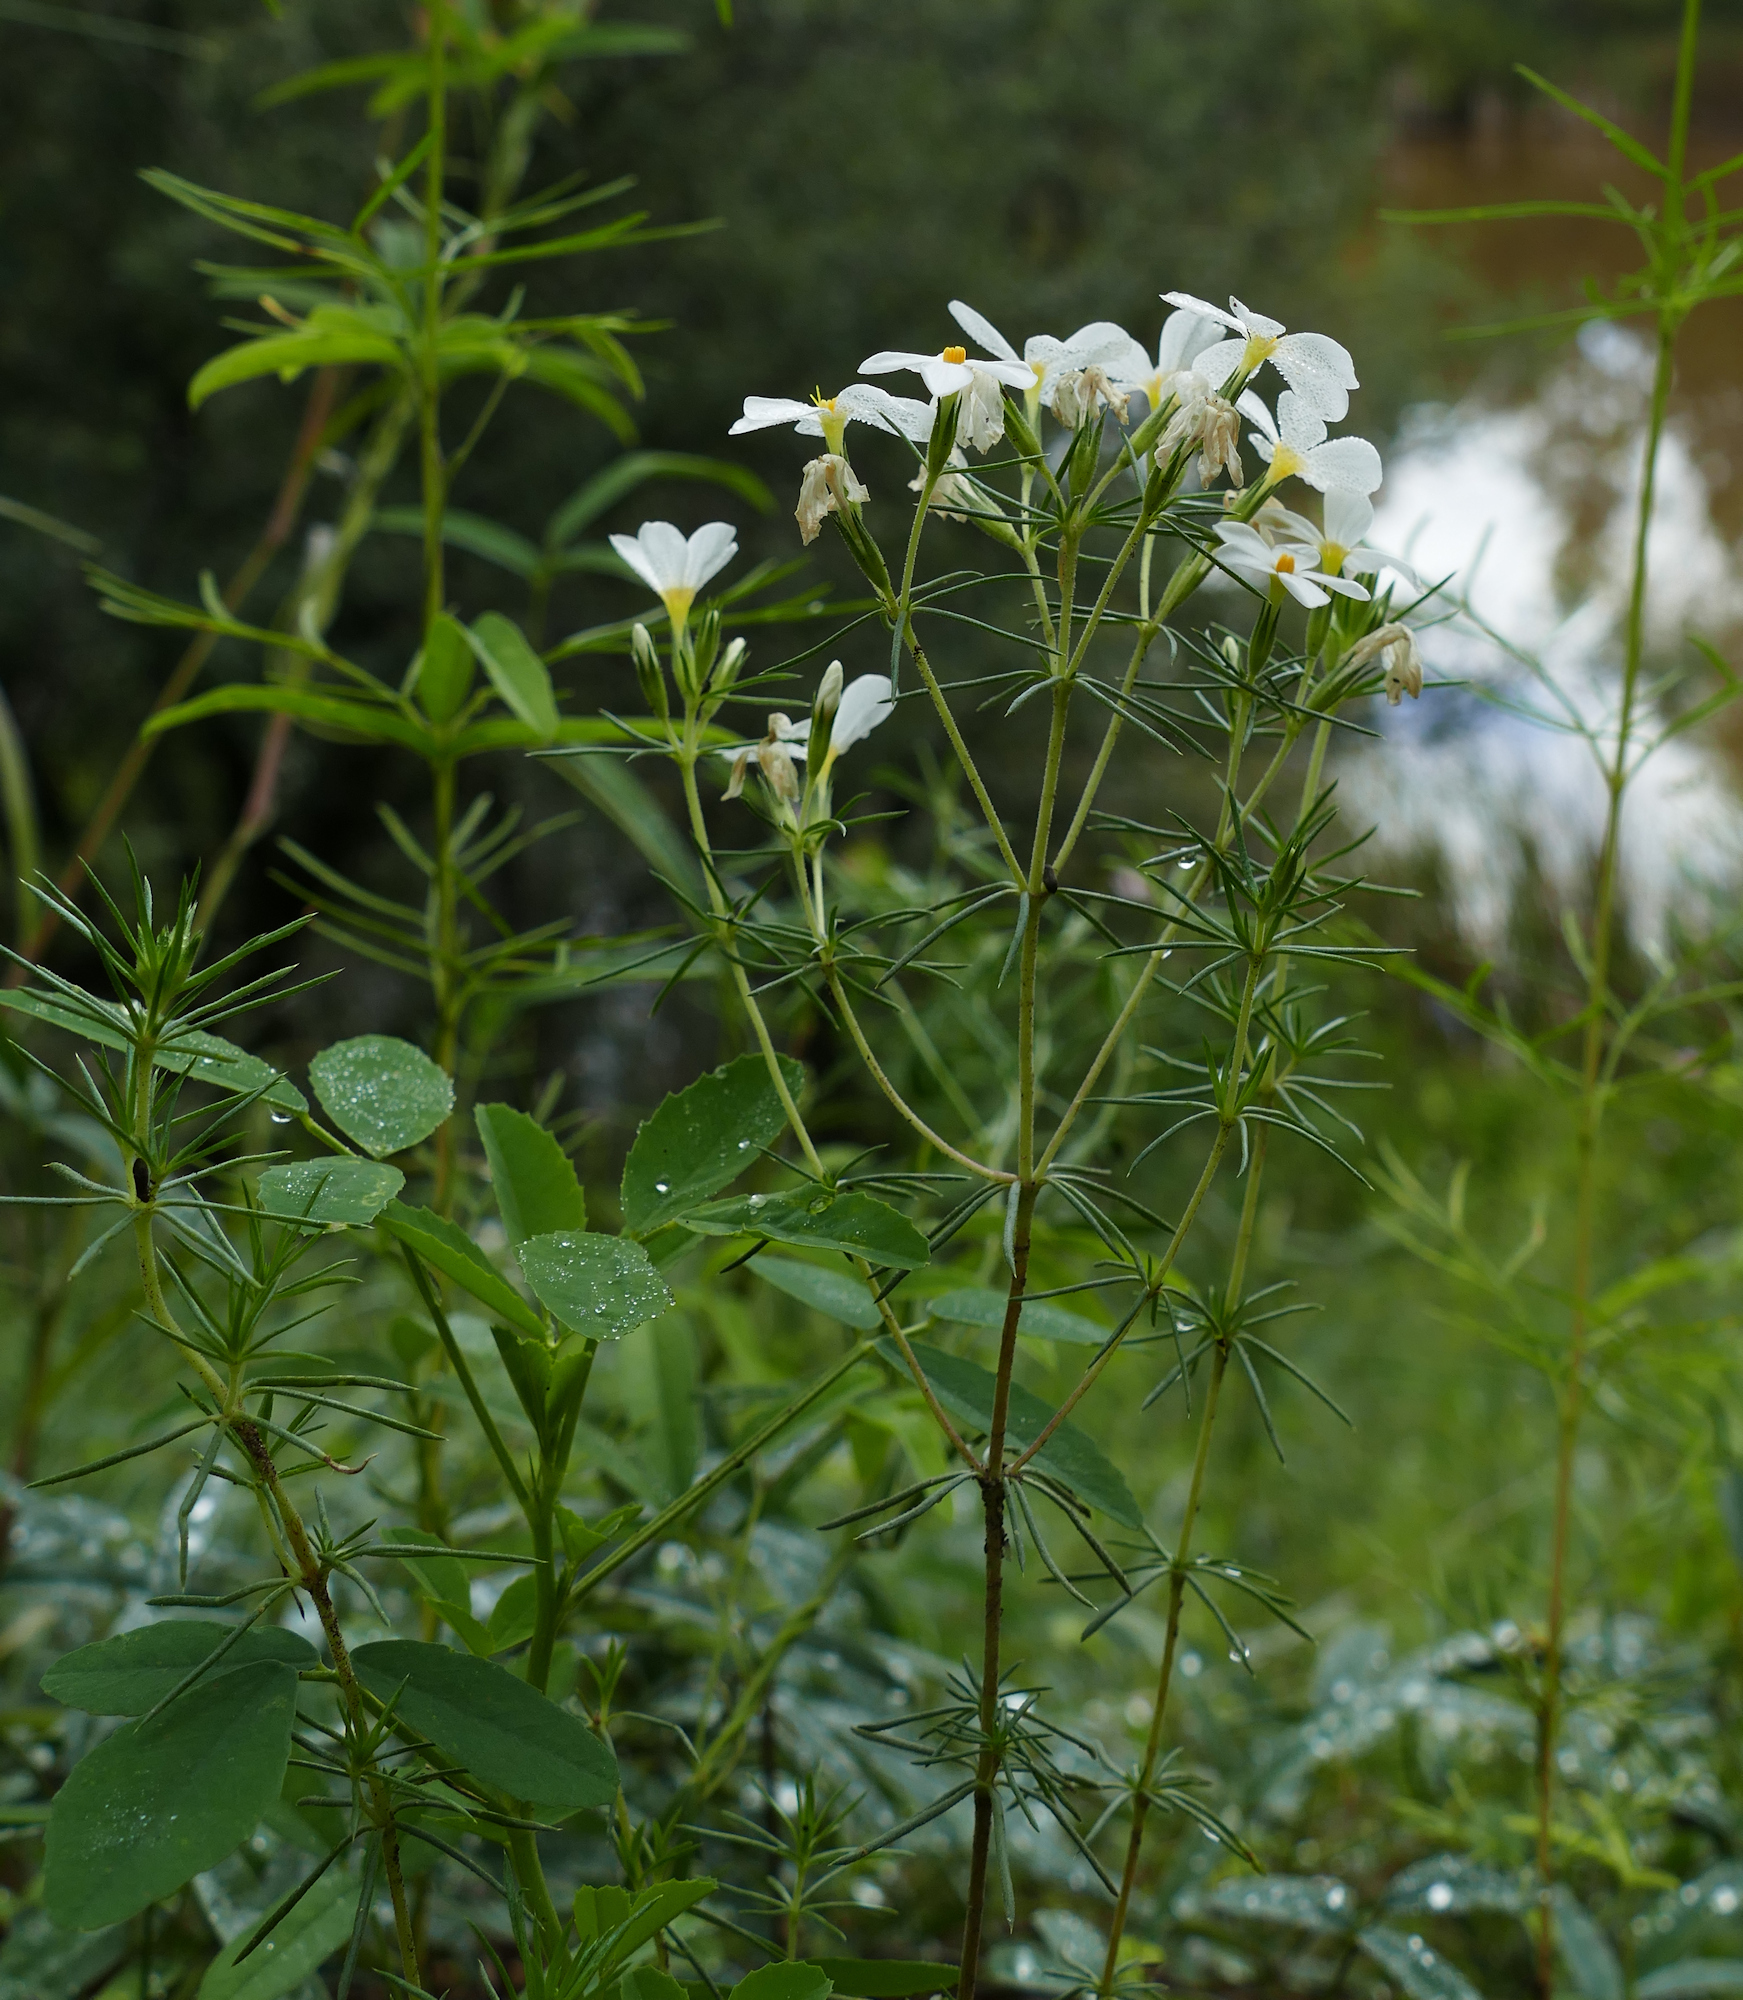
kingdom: Plantae
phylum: Tracheophyta
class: Magnoliopsida
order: Ericales
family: Polemoniaceae
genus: Leptosiphon
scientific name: Leptosiphon nuttallii
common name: Nuttall's linanthus
